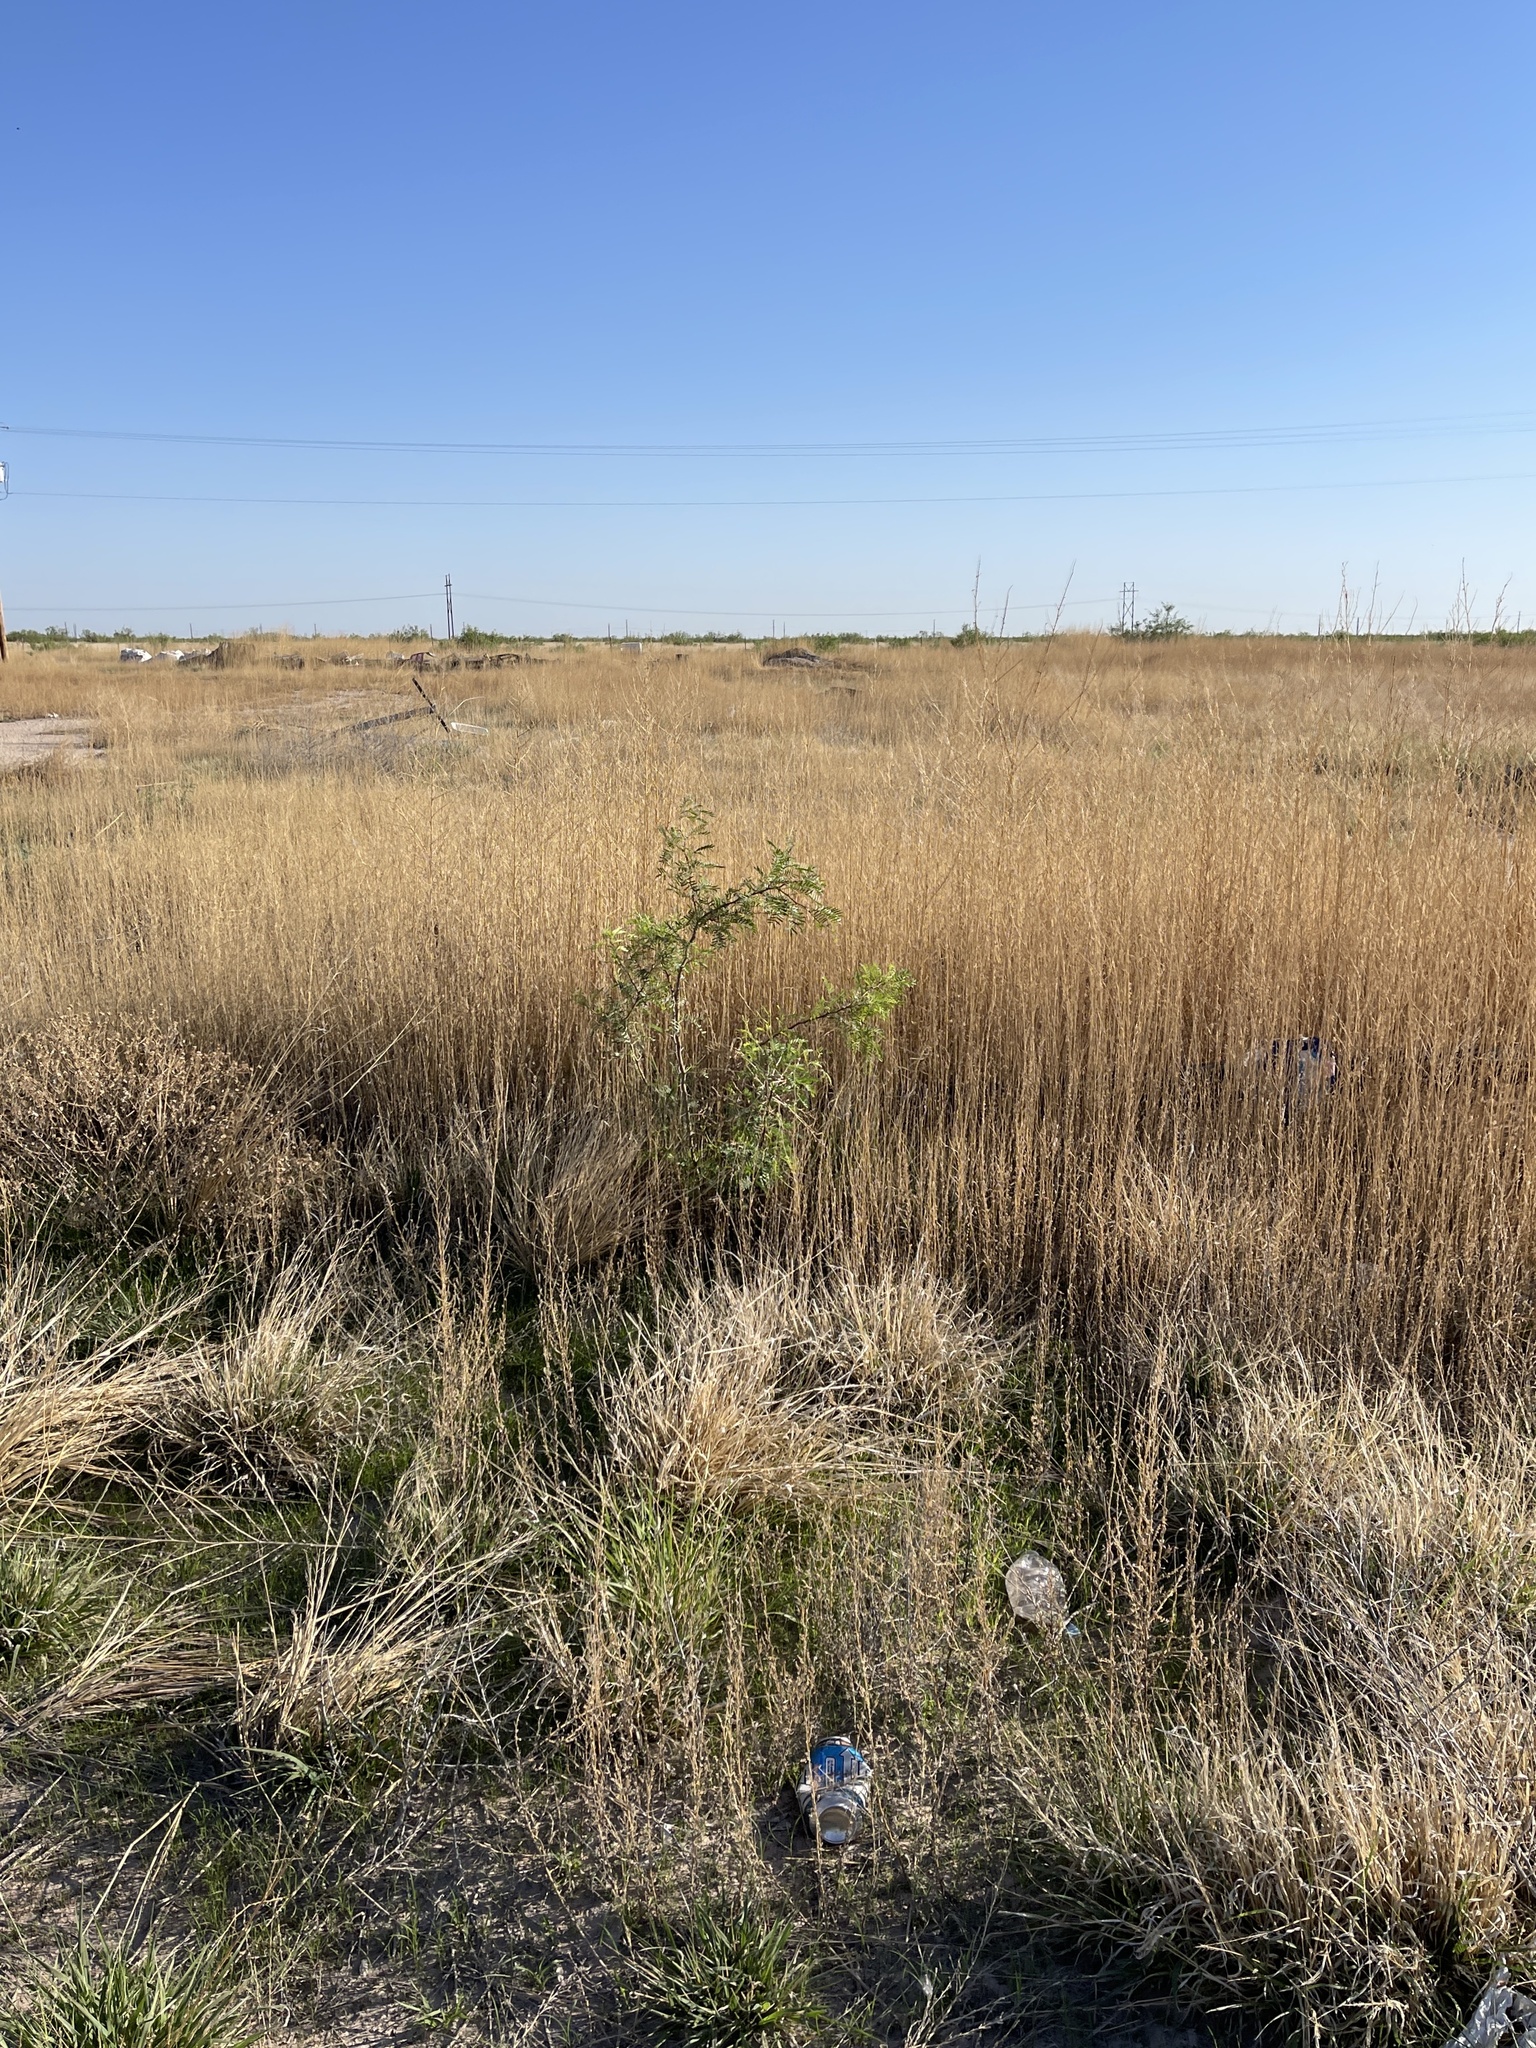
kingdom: Plantae
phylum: Tracheophyta
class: Magnoliopsida
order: Fabales
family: Fabaceae
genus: Prosopis
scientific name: Prosopis glandulosa
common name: Honey mesquite
